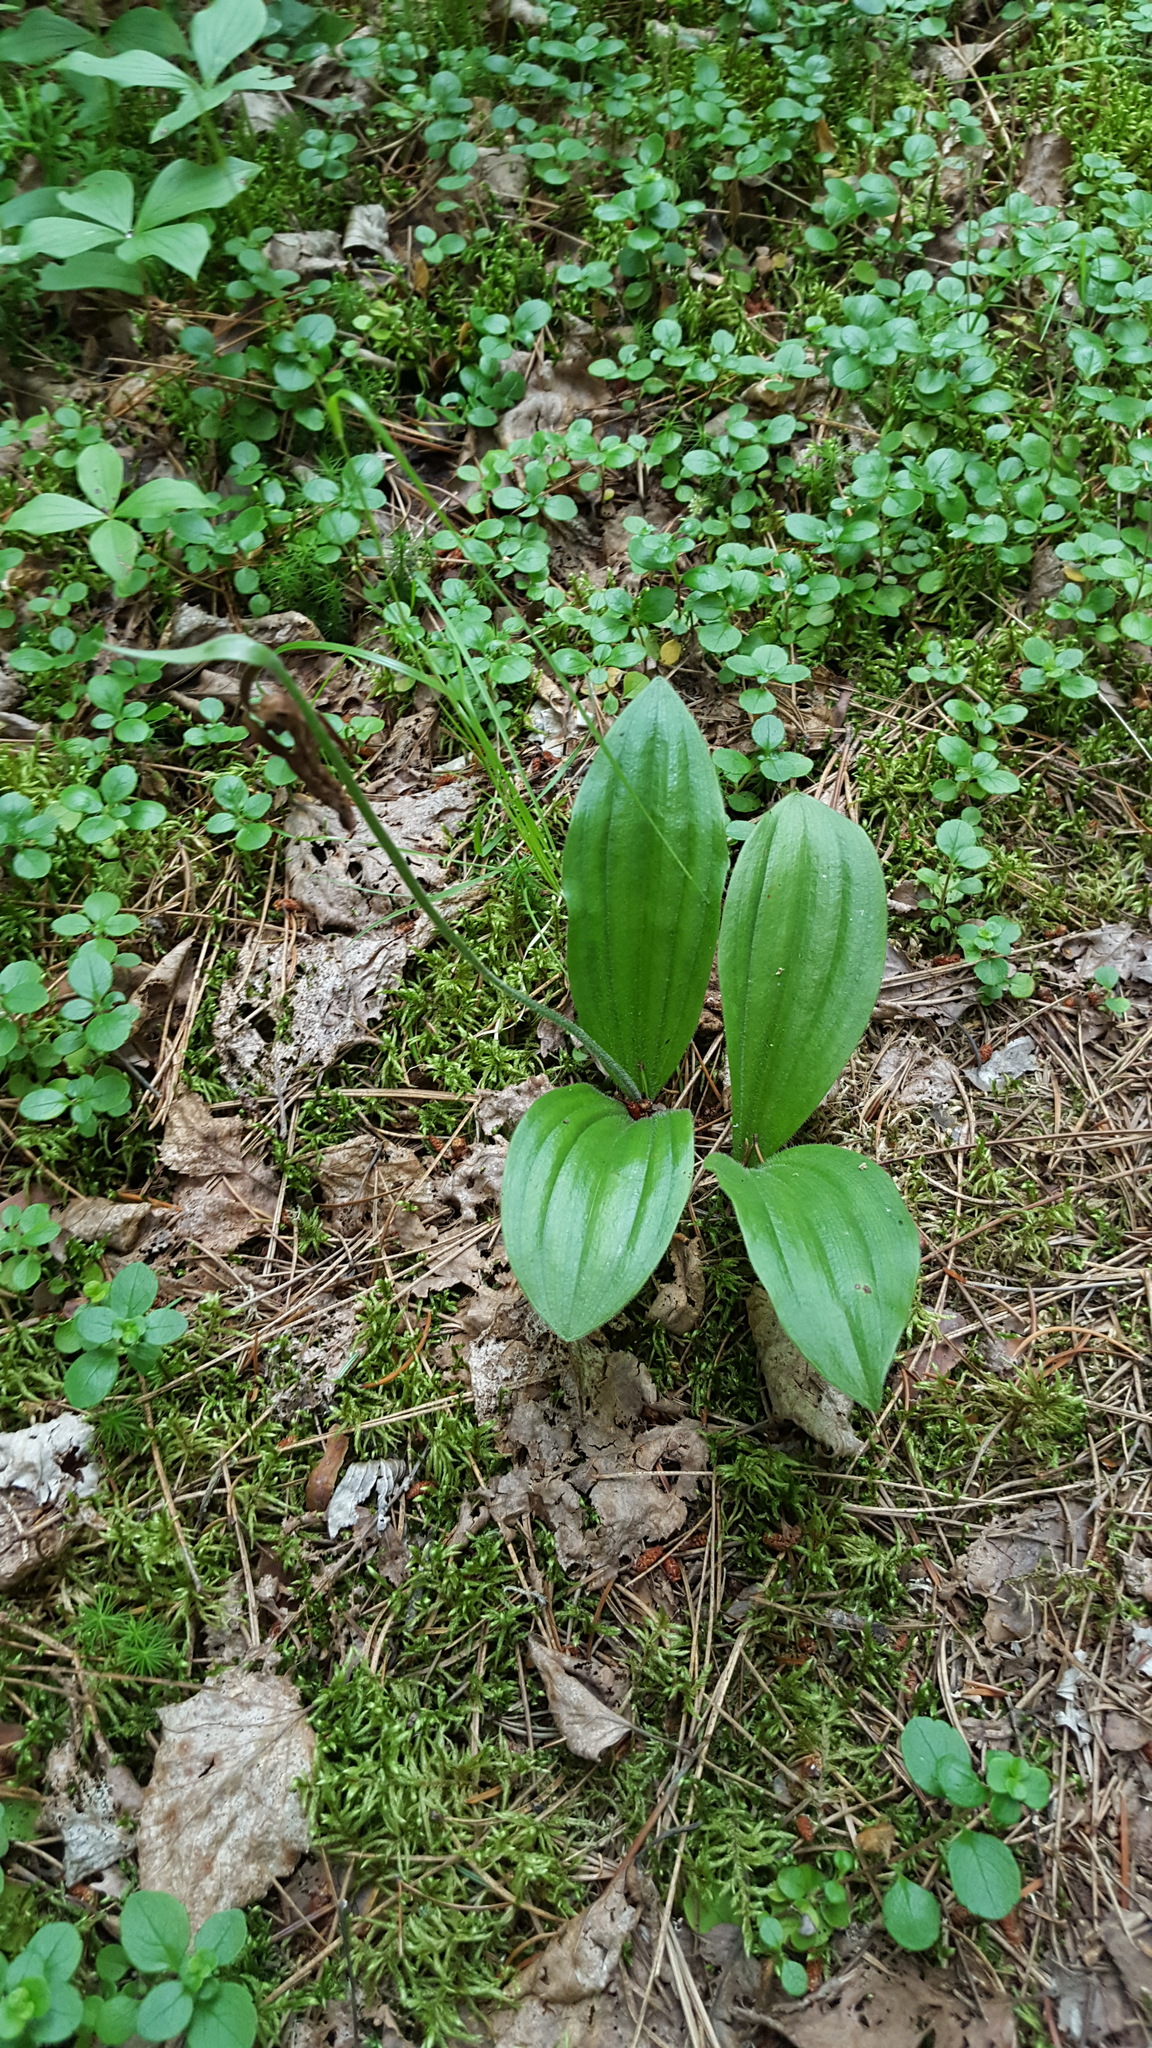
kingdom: Plantae
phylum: Tracheophyta
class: Liliopsida
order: Asparagales
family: Orchidaceae
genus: Cypripedium
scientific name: Cypripedium acaule
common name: Pink lady's-slipper
